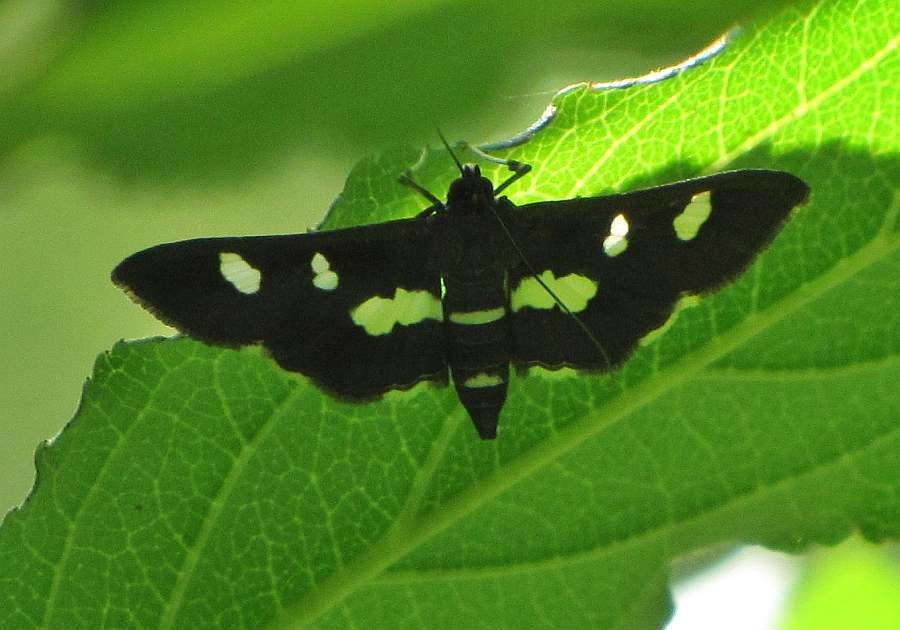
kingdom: Animalia
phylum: Arthropoda
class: Insecta
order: Lepidoptera
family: Crambidae
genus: Desmia
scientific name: Desmia
